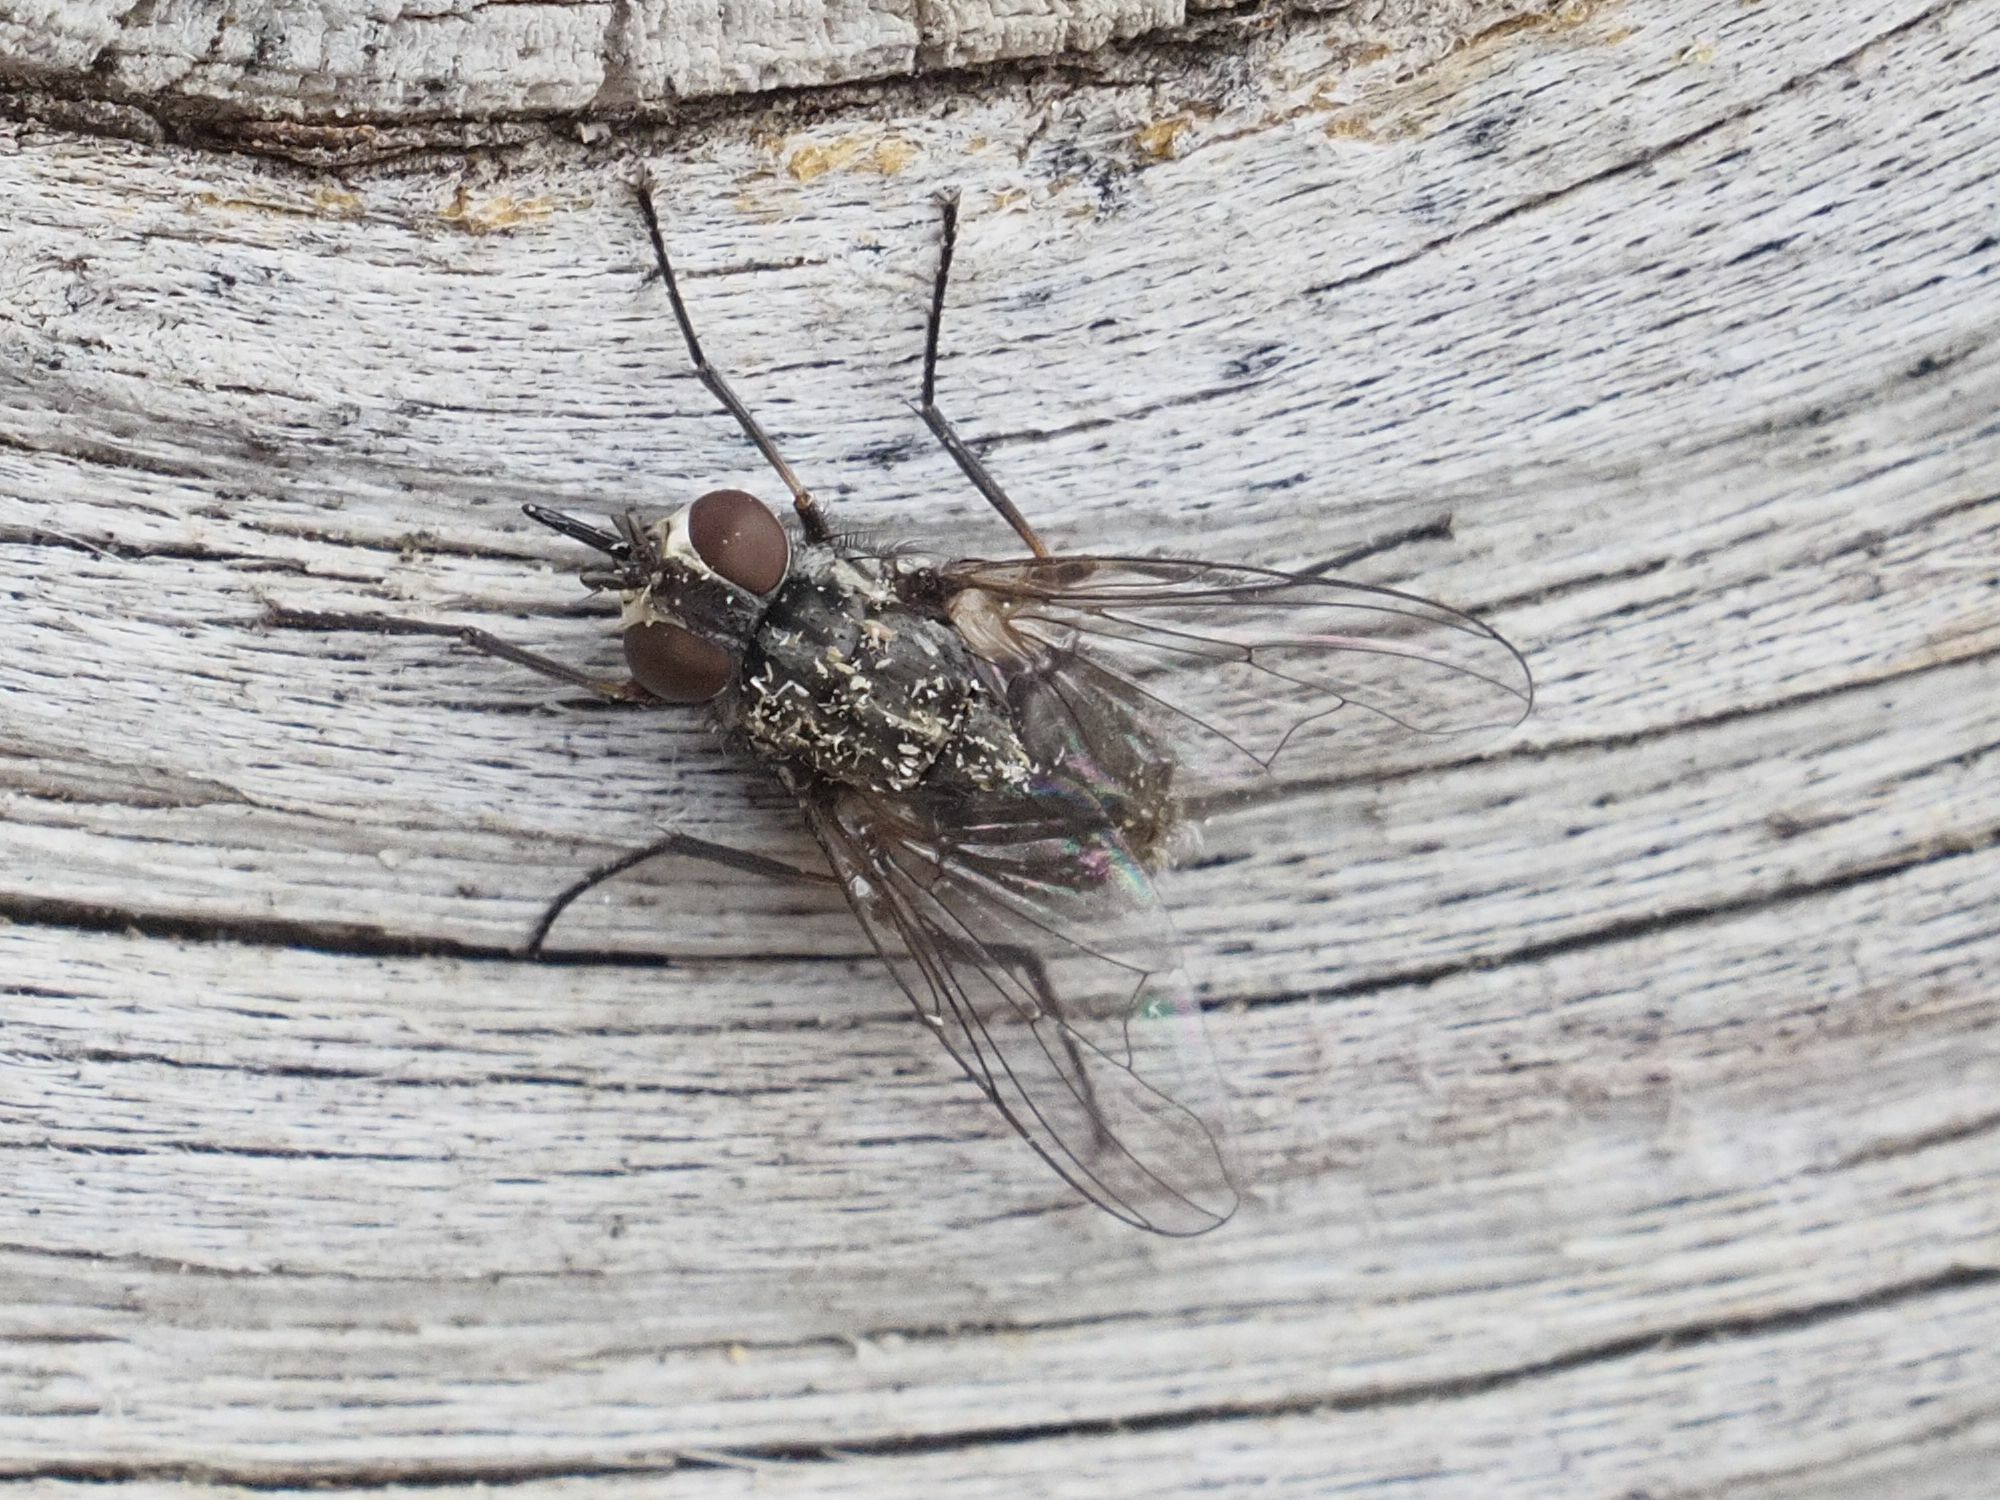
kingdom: Animalia
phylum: Arthropoda
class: Insecta
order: Diptera
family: Muscidae
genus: Stomoxys
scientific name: Stomoxys calcitrans
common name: Stable fly
